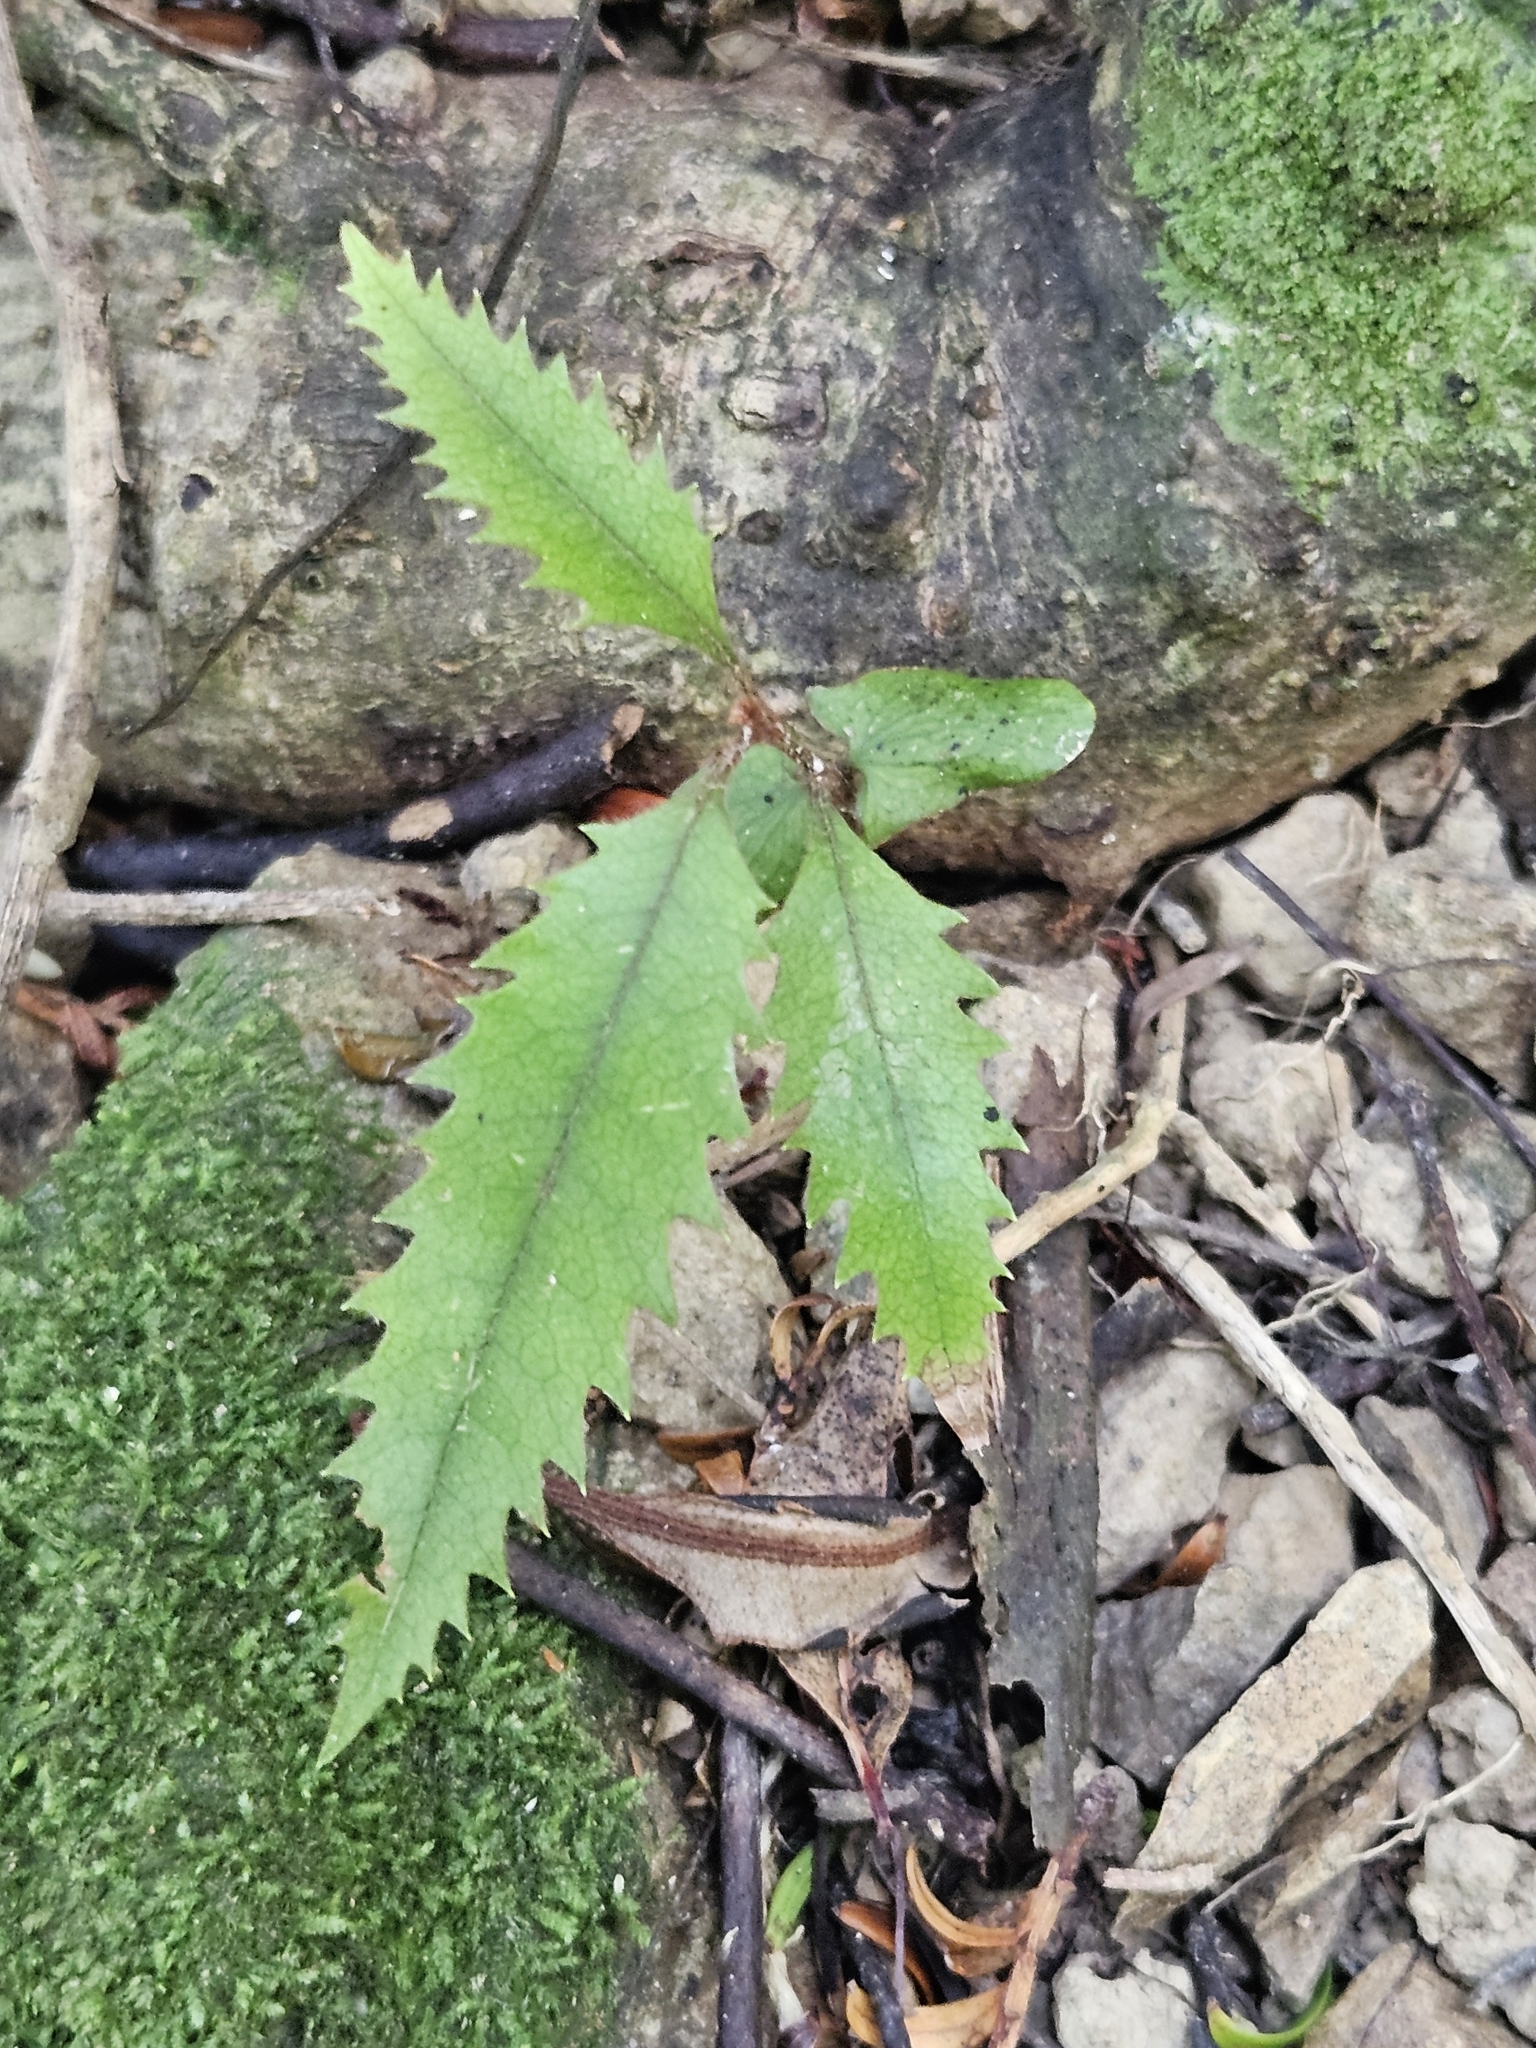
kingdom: Plantae
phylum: Tracheophyta
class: Magnoliopsida
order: Proteales
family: Proteaceae
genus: Knightia
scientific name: Knightia excelsa
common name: New zealand-honeysuckle
